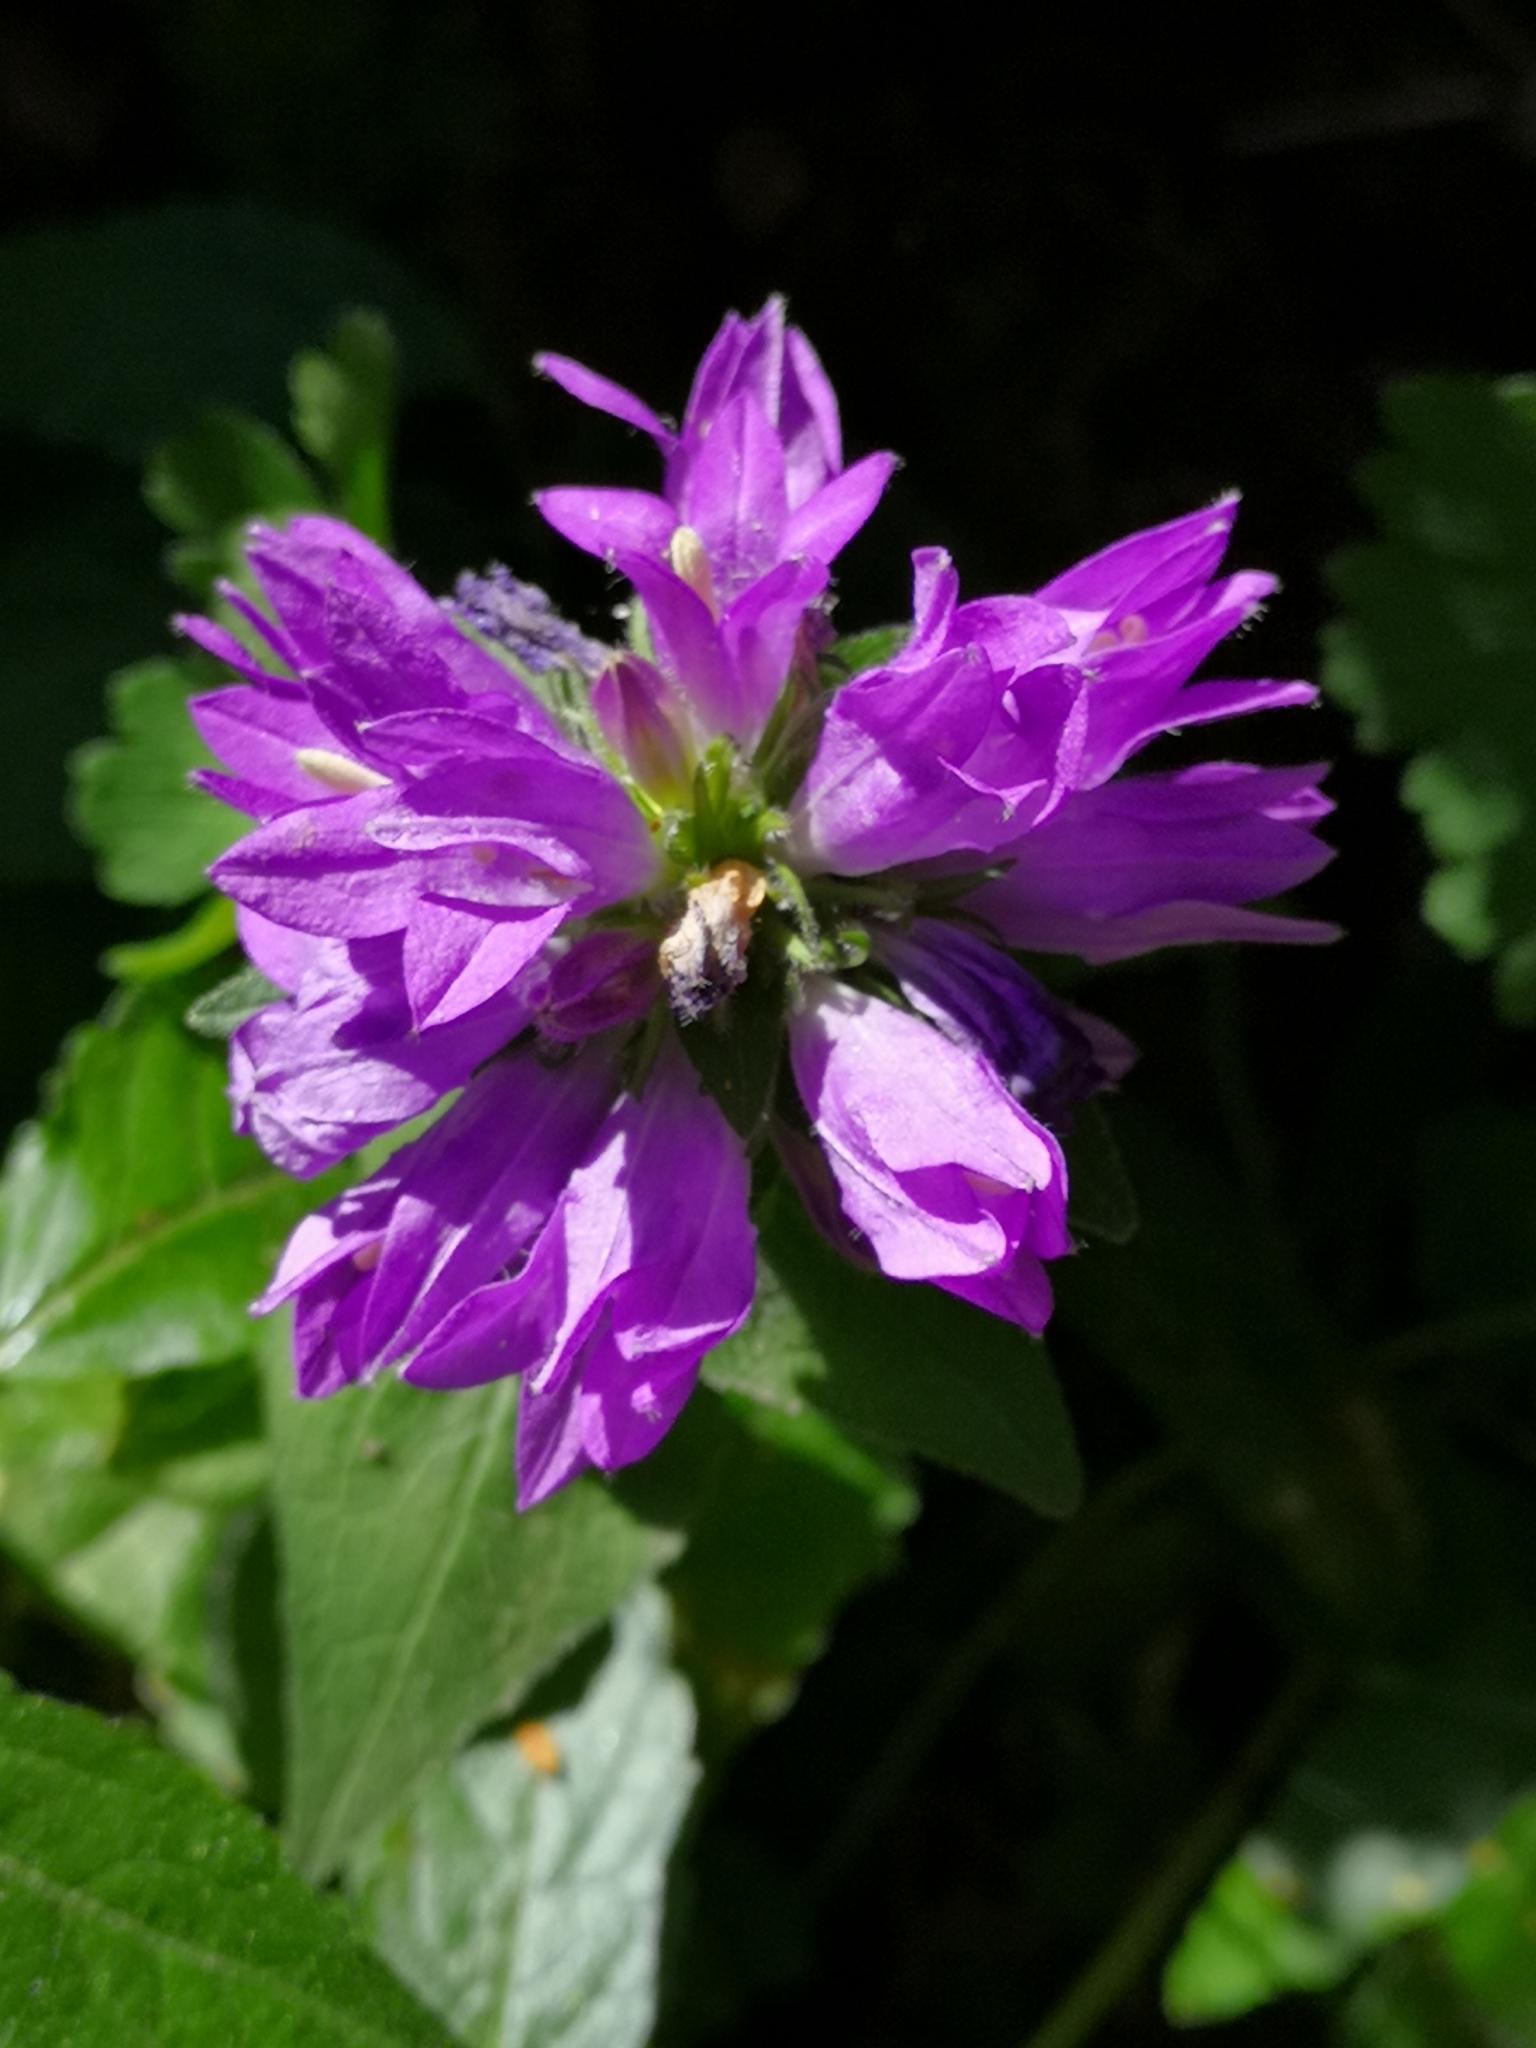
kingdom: Plantae
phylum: Tracheophyta
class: Magnoliopsida
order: Asterales
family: Campanulaceae
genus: Campanula
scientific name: Campanula glomerata
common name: Clustered bellflower
